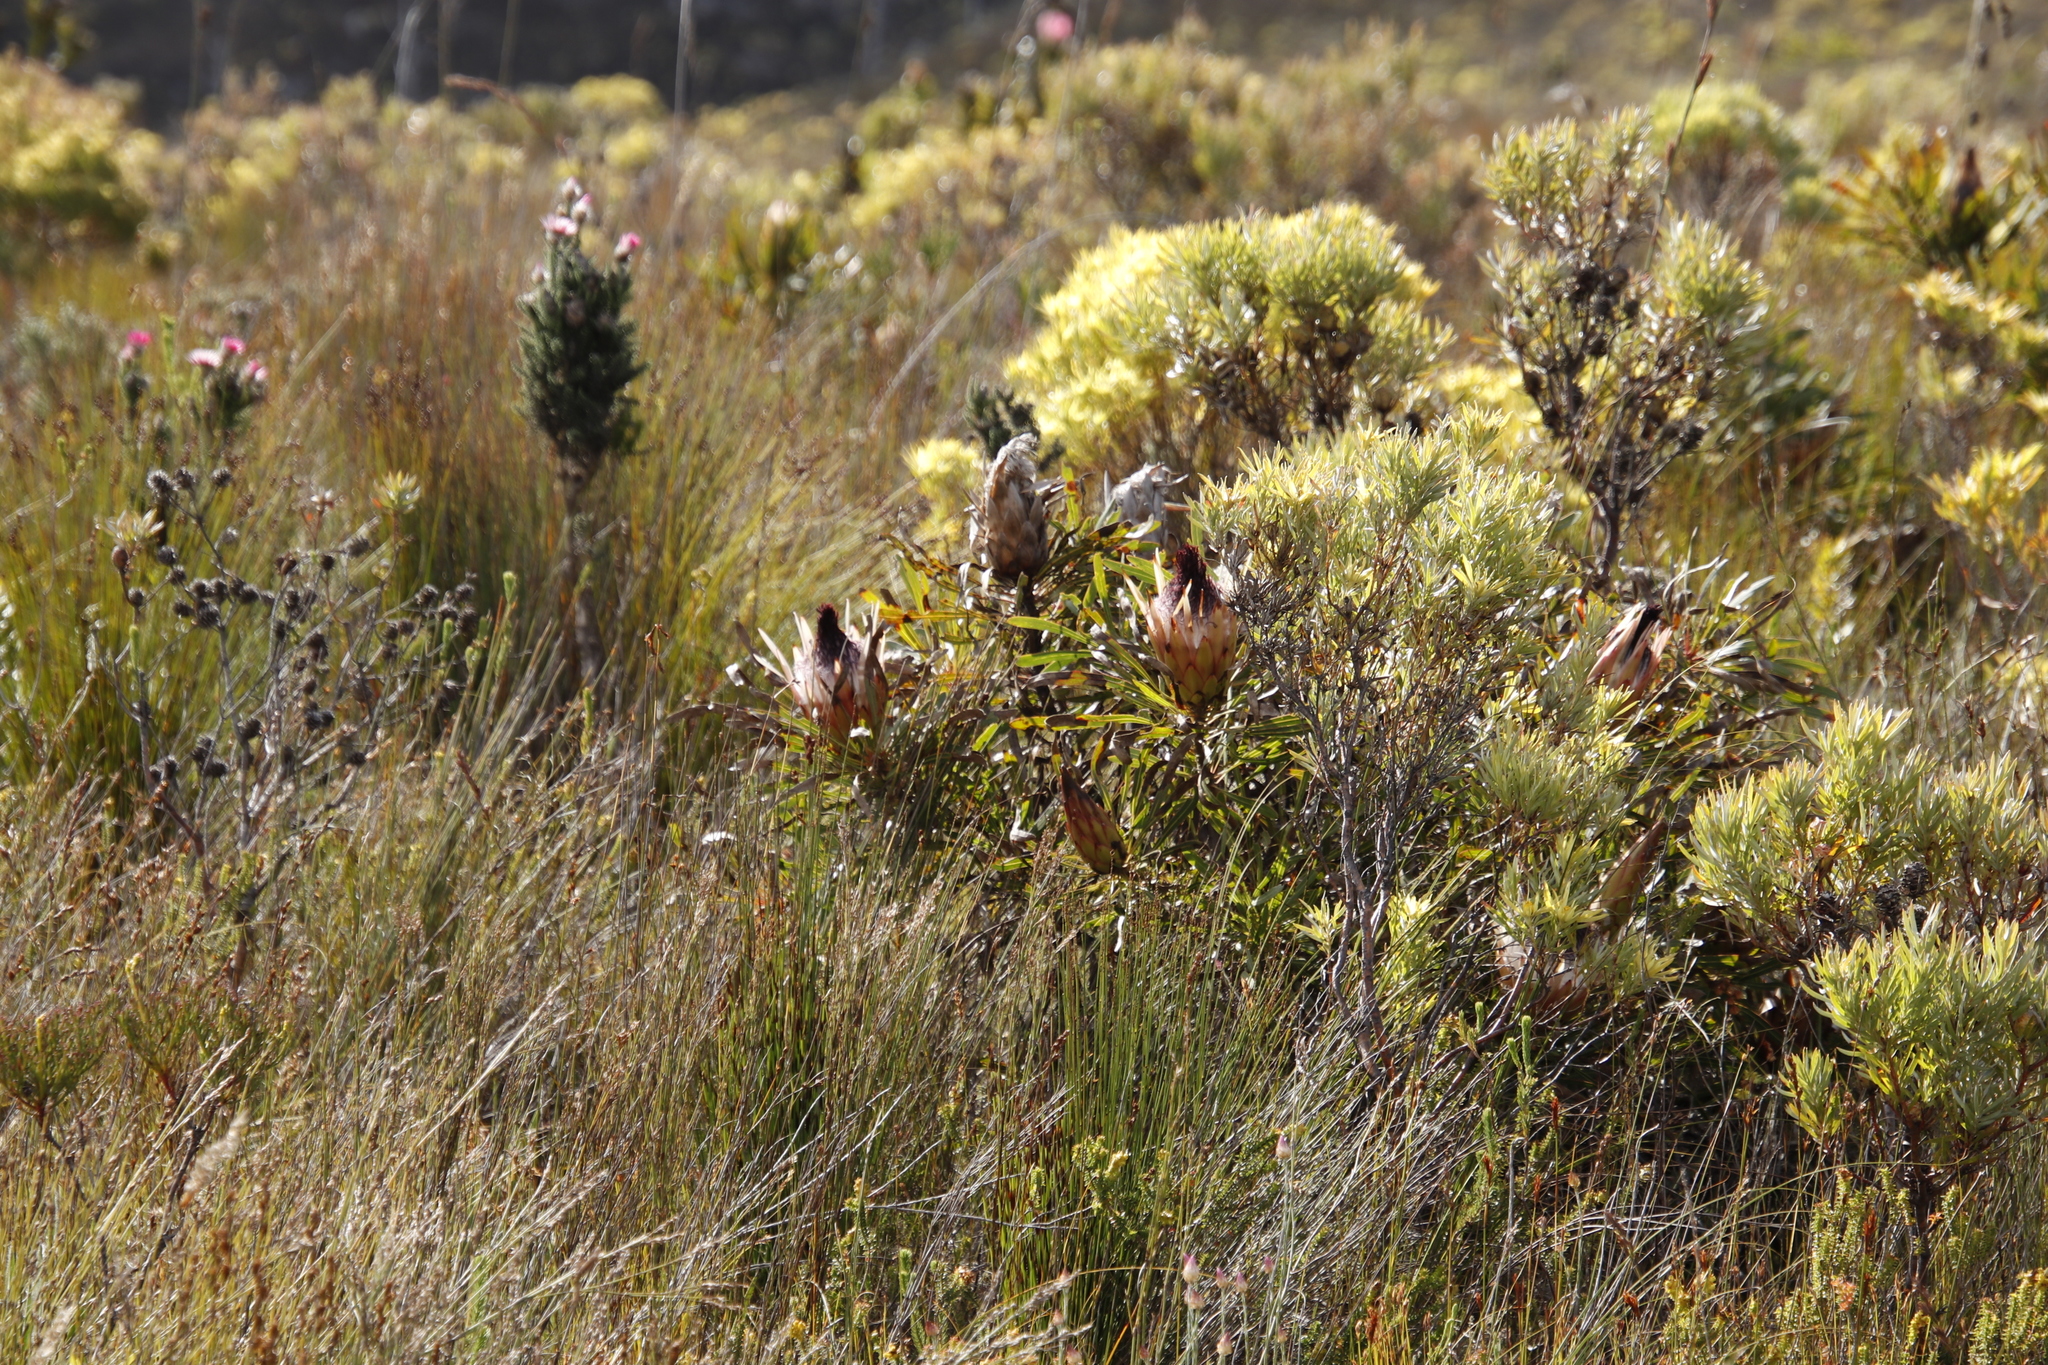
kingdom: Plantae
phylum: Tracheophyta
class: Magnoliopsida
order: Proteales
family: Proteaceae
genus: Protea
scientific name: Protea longifolia
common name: Long-leaf sugarbush
